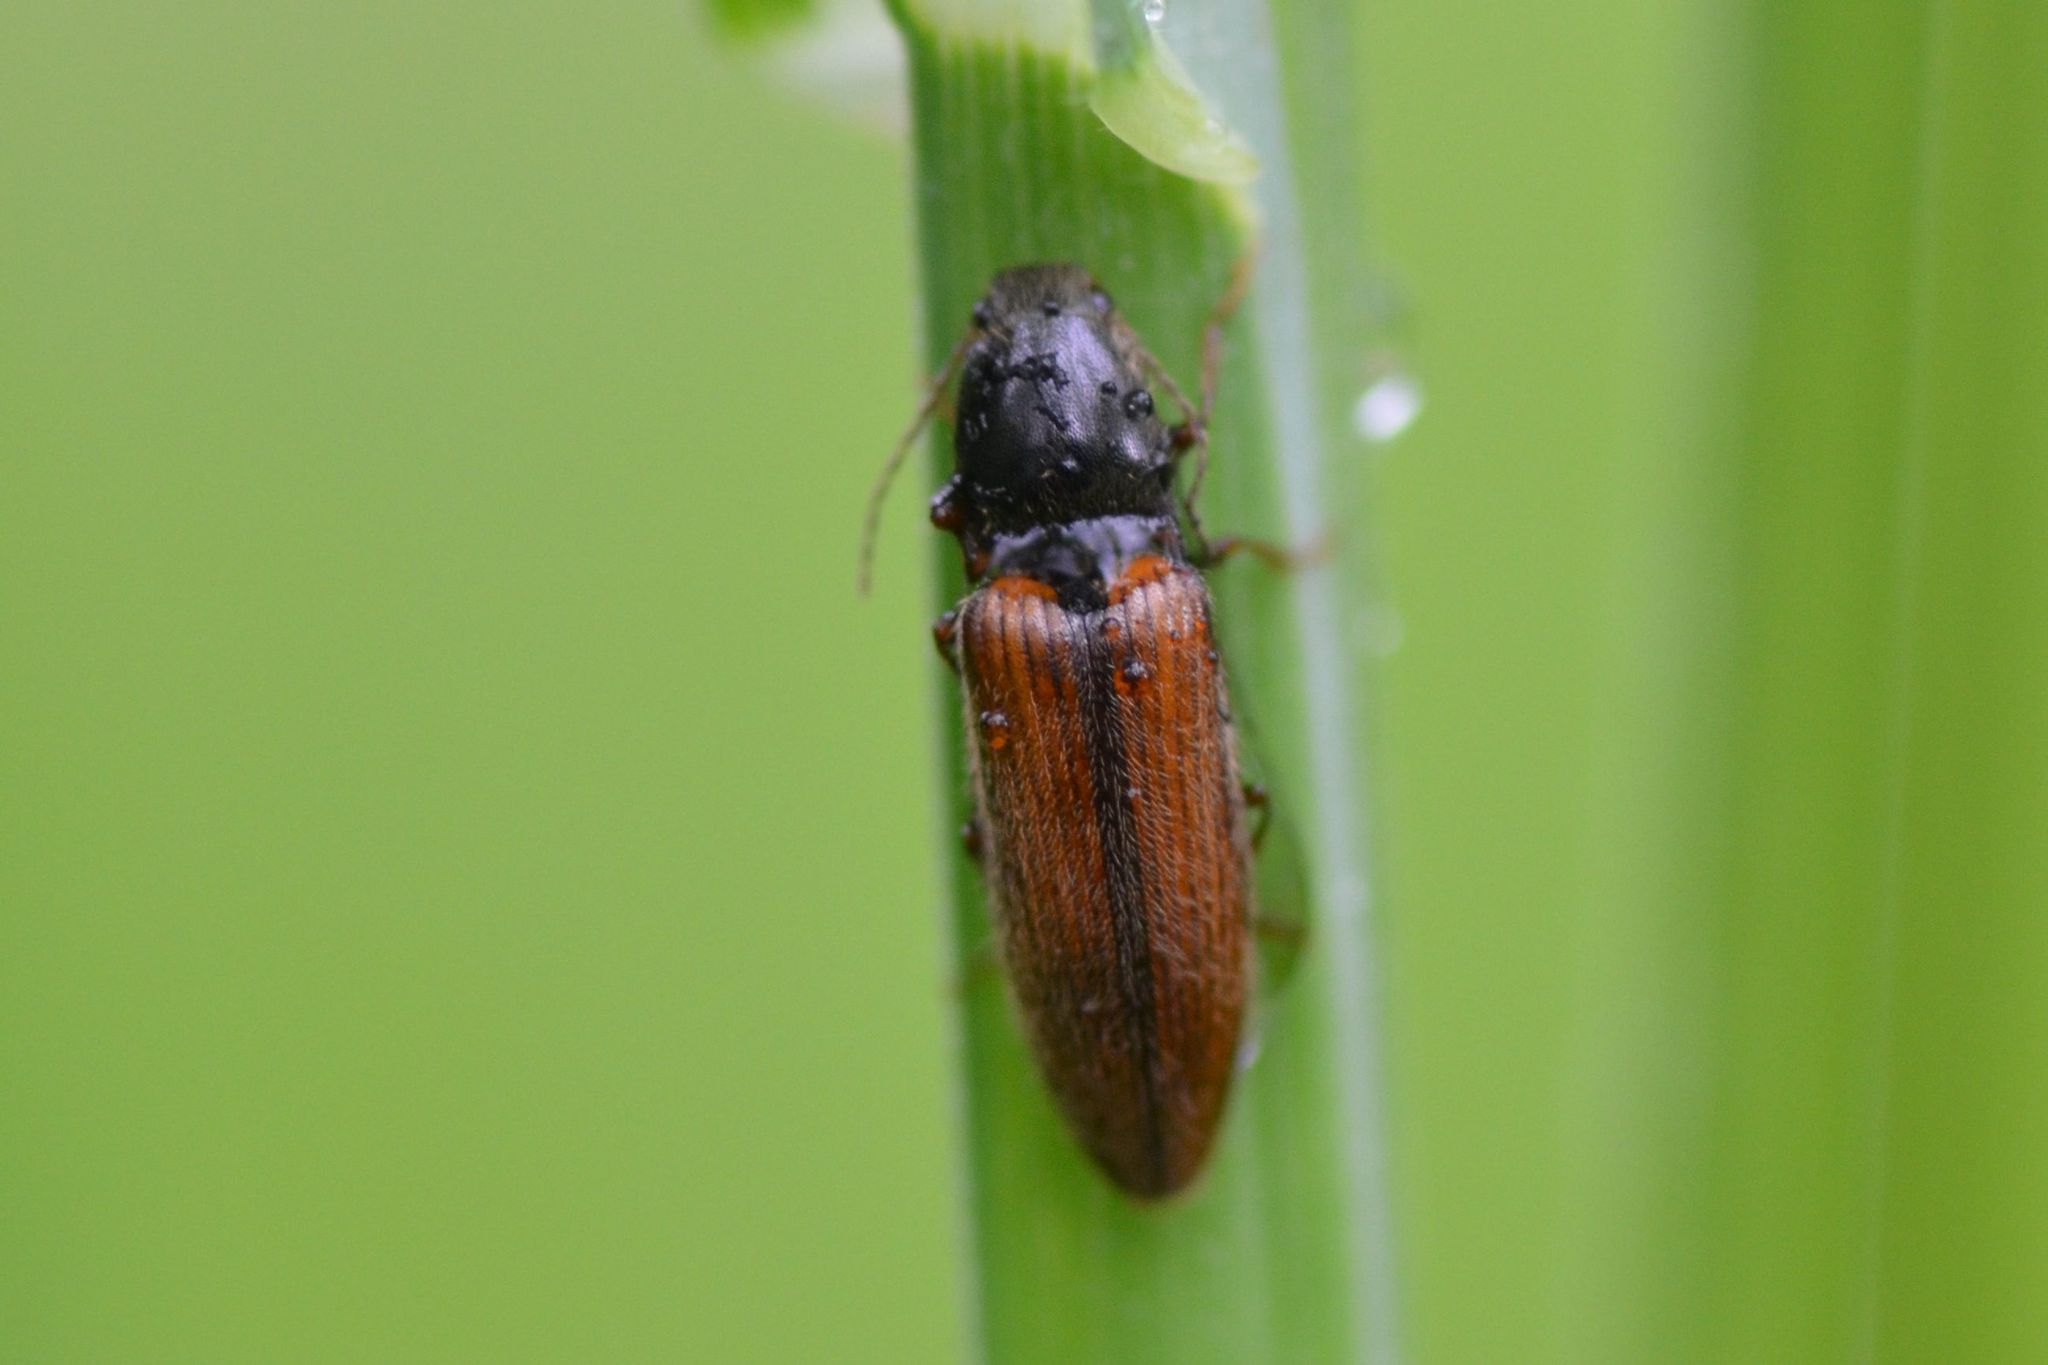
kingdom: Animalia
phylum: Arthropoda
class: Insecta
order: Coleoptera
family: Elateridae
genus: Athous
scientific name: Athous vittatus
